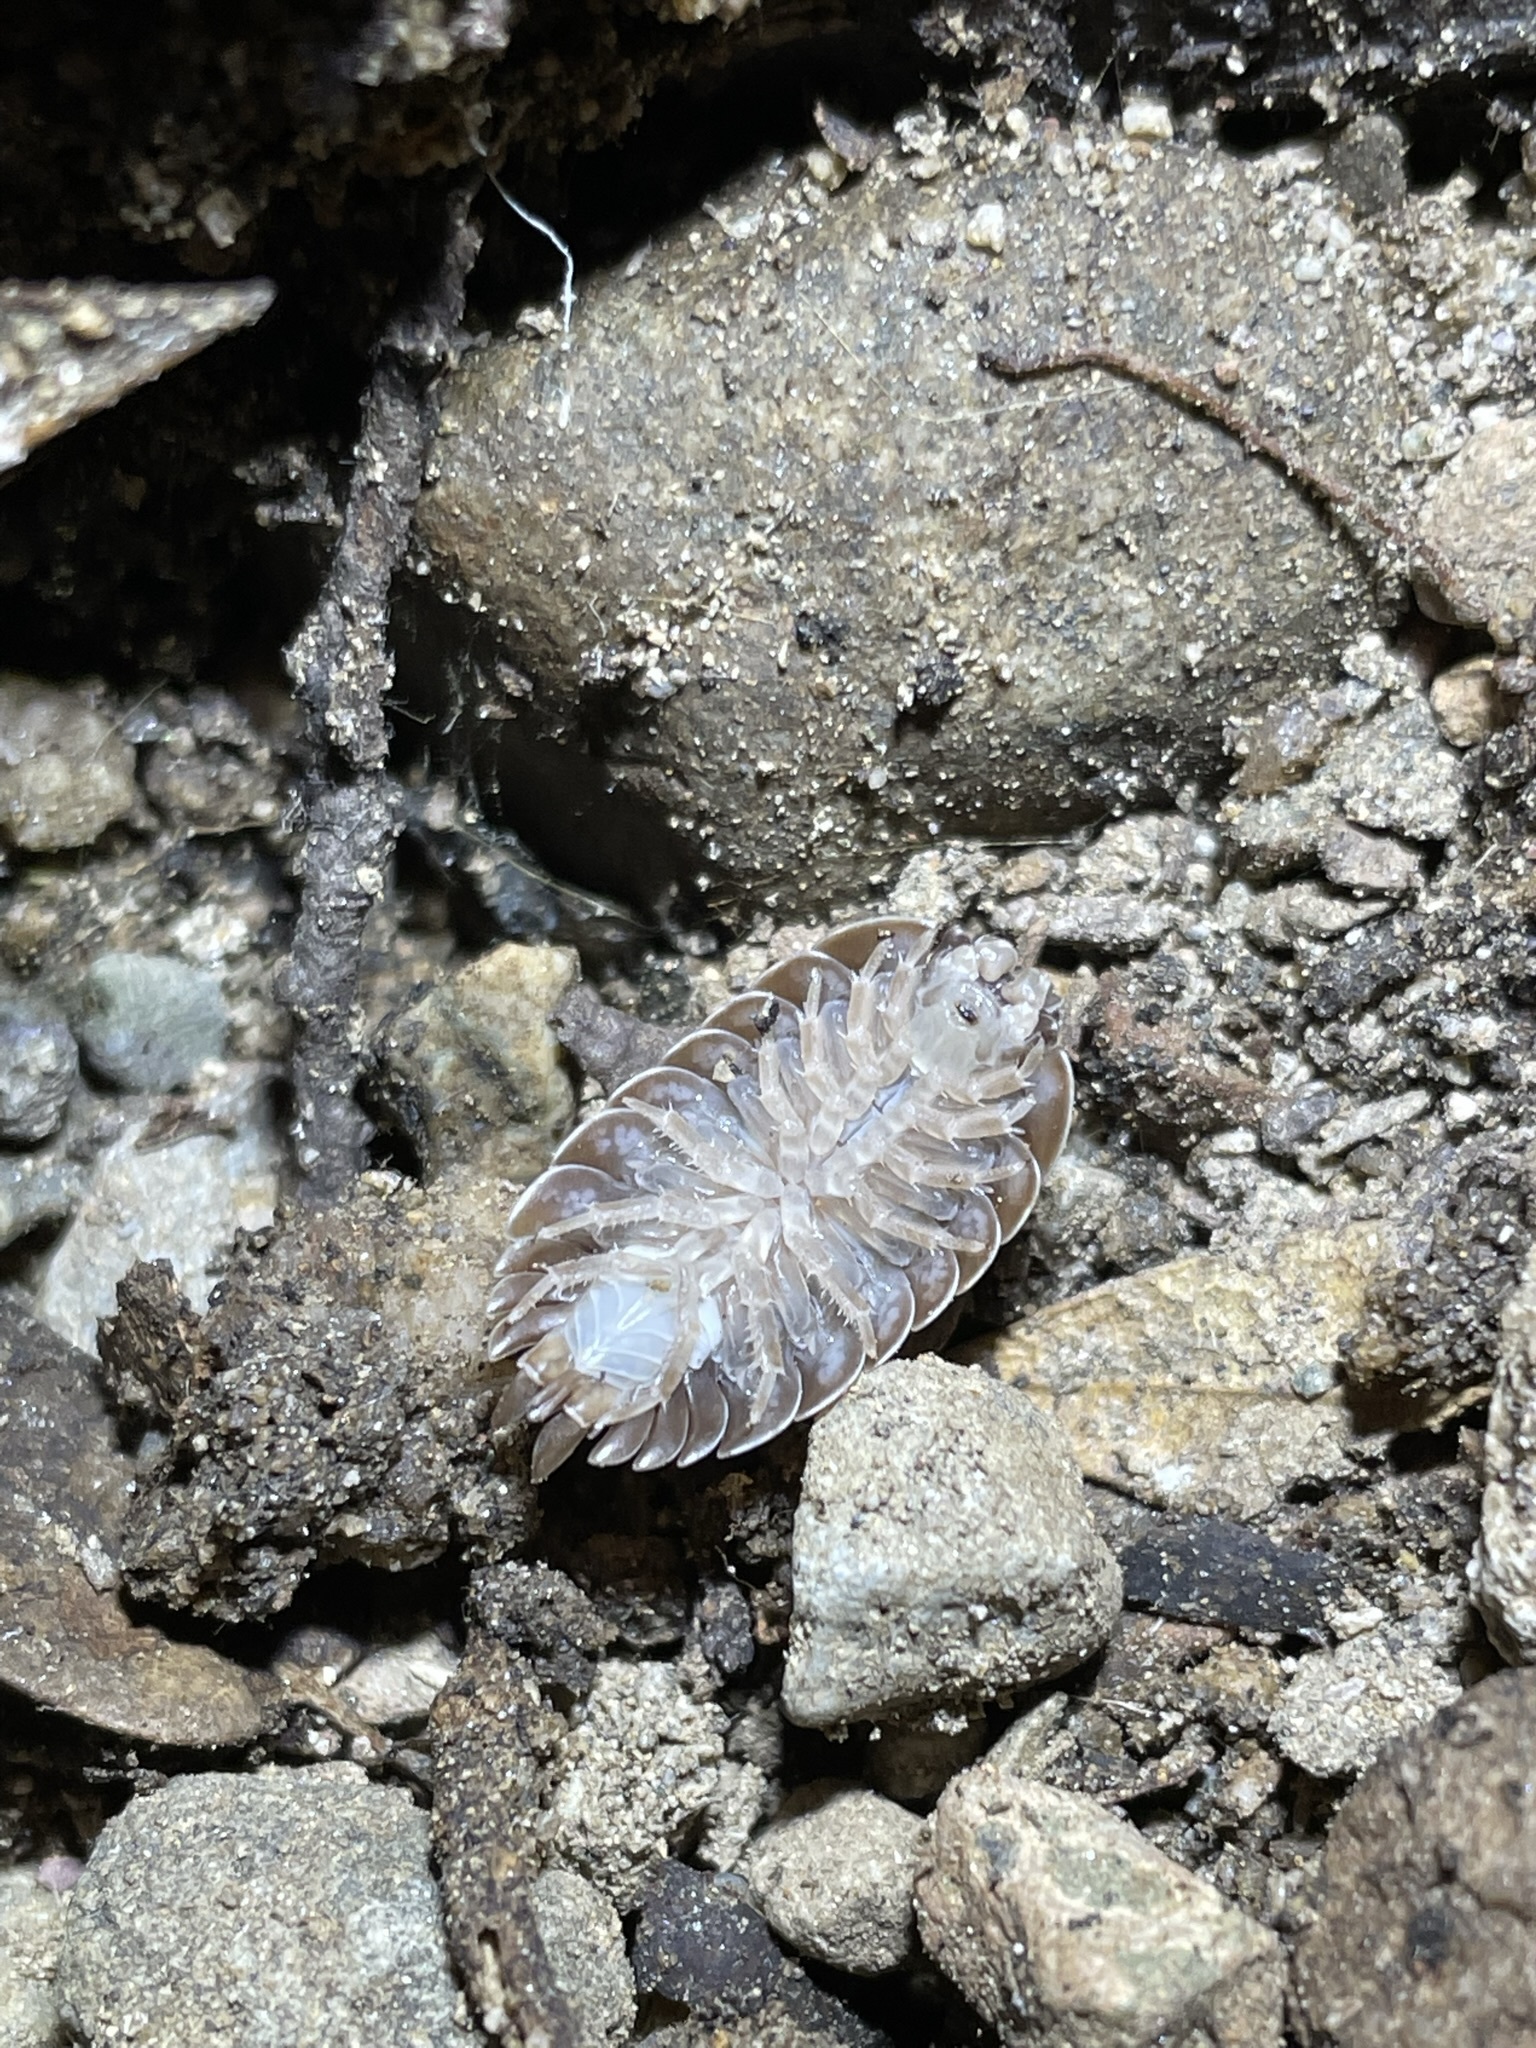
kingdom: Animalia
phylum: Arthropoda
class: Malacostraca
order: Isopoda
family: Porcellionidae
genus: Porcellio
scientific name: Porcellio dilatatus
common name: Isopod
